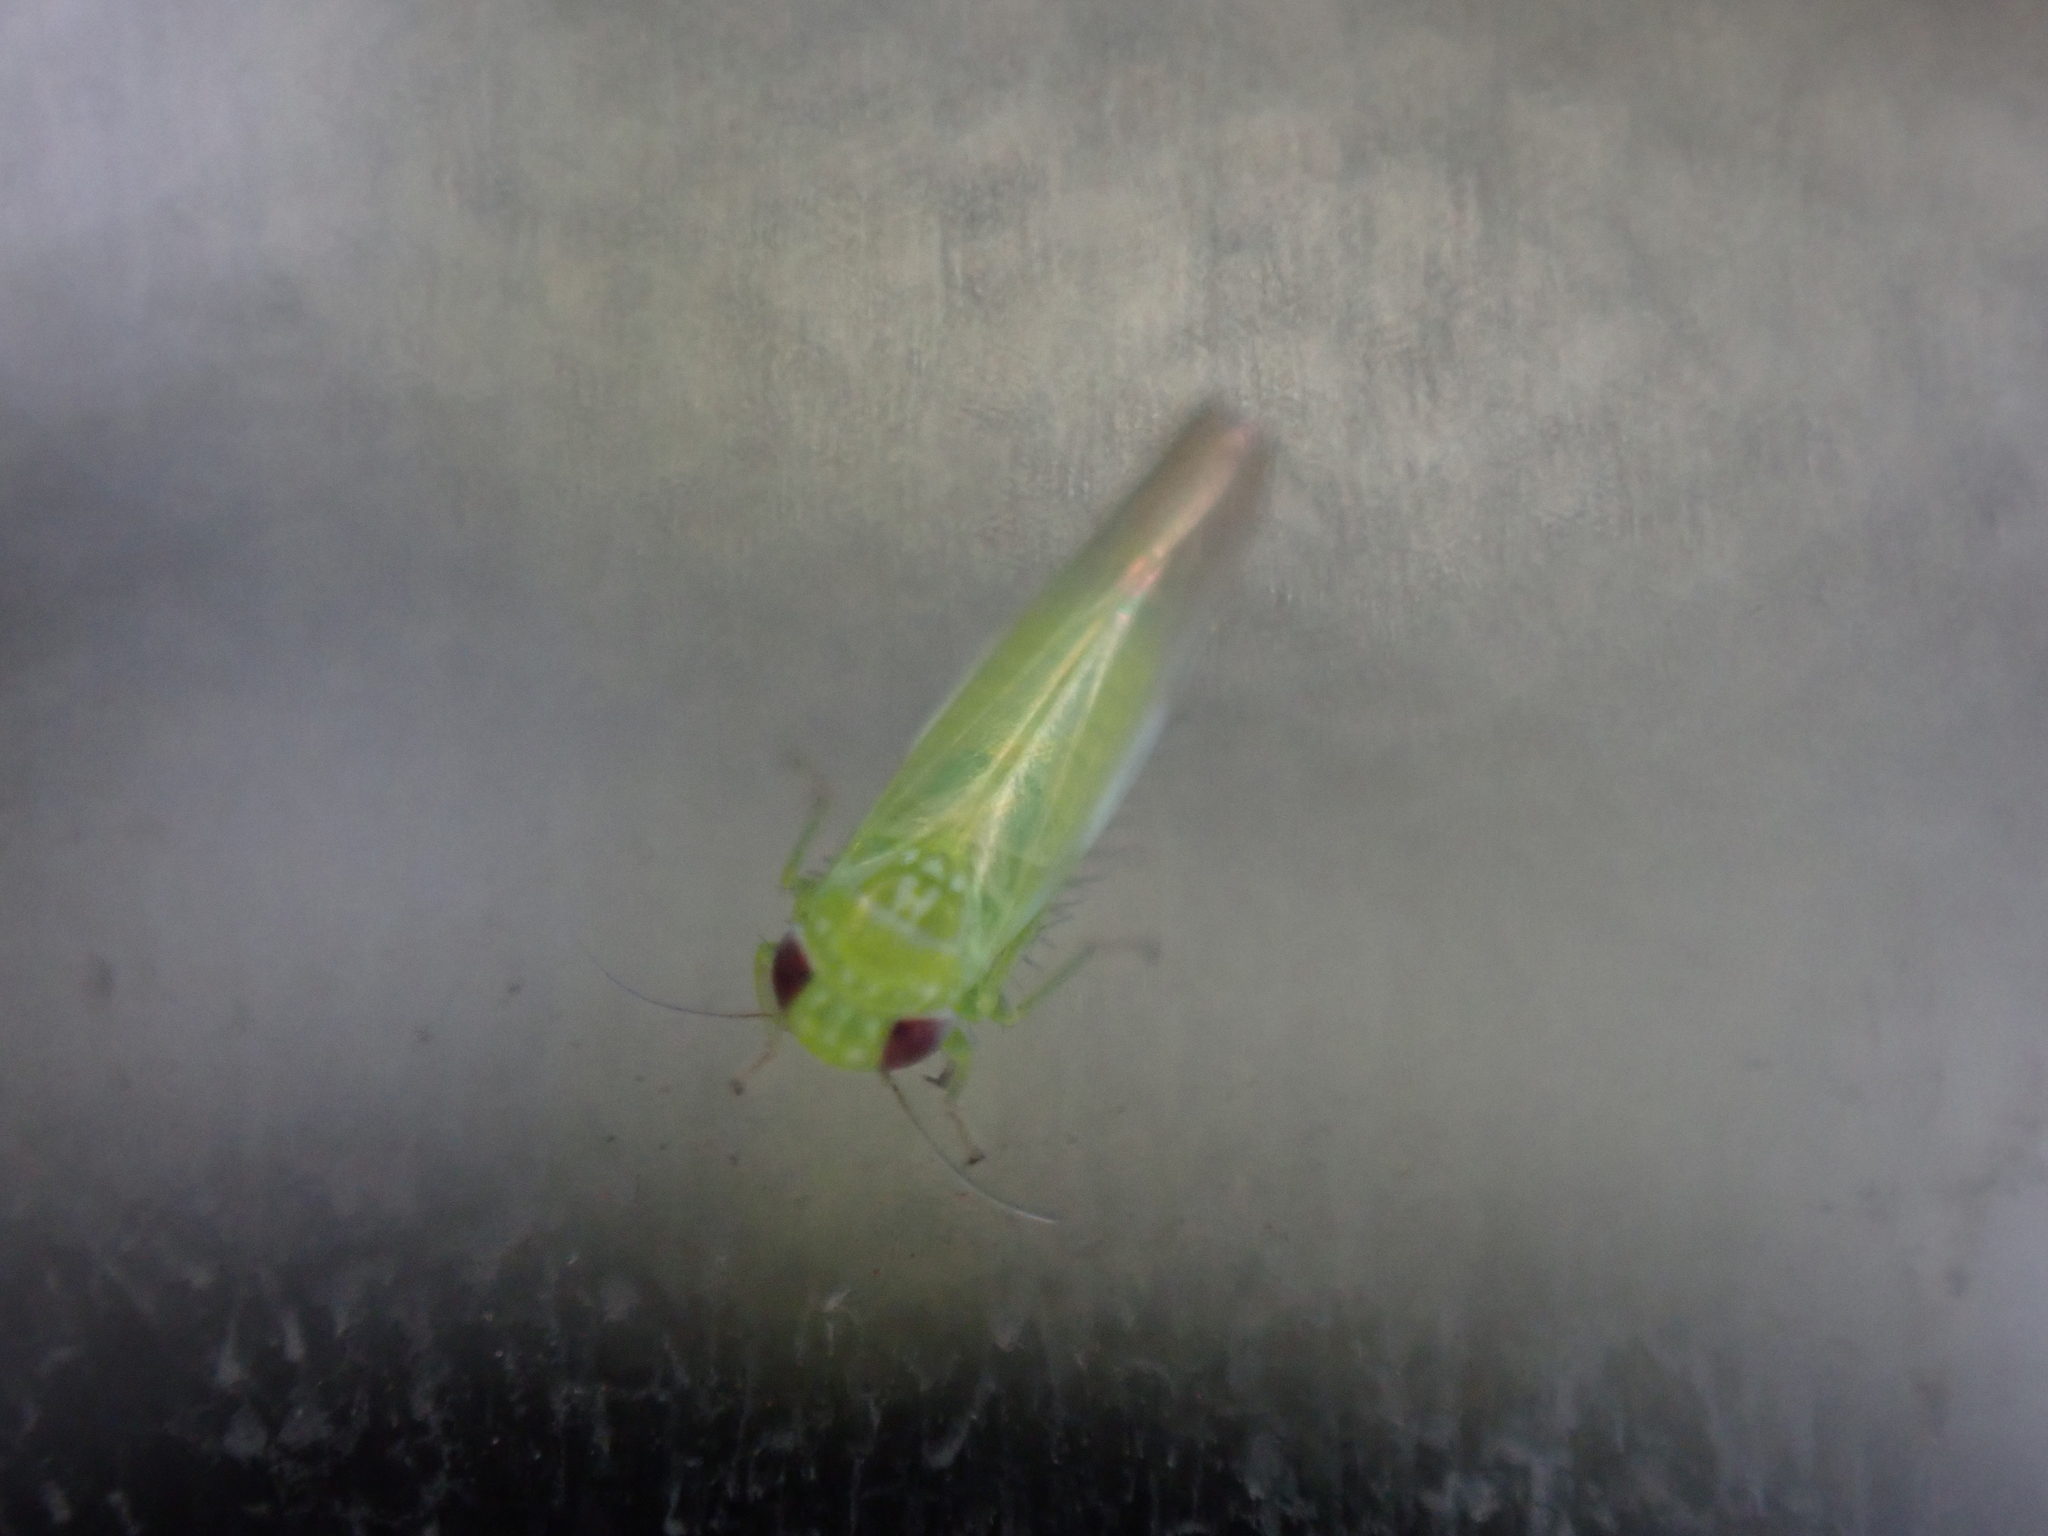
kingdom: Animalia
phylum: Arthropoda
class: Insecta
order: Hemiptera
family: Cicadellidae
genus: Empoasca
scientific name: Empoasca fabae
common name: Potato leafhopper
